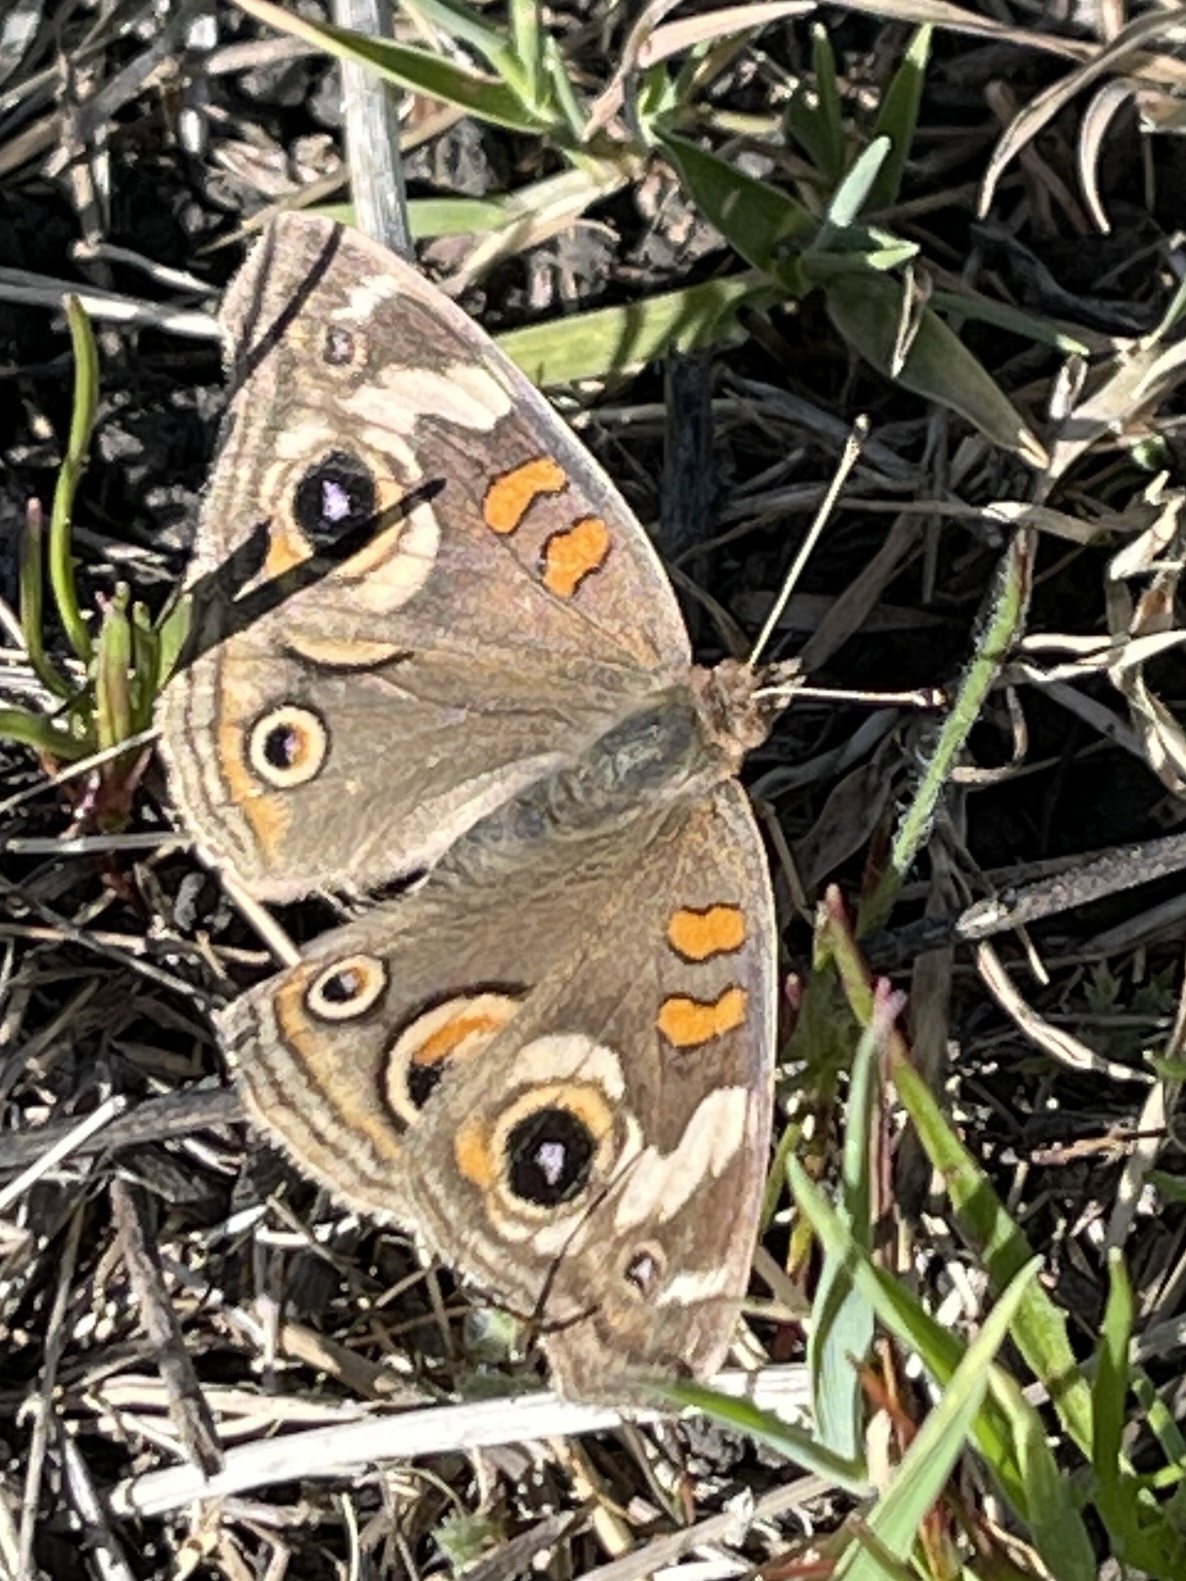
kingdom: Animalia
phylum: Arthropoda
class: Insecta
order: Lepidoptera
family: Nymphalidae
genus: Junonia
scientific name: Junonia grisea
